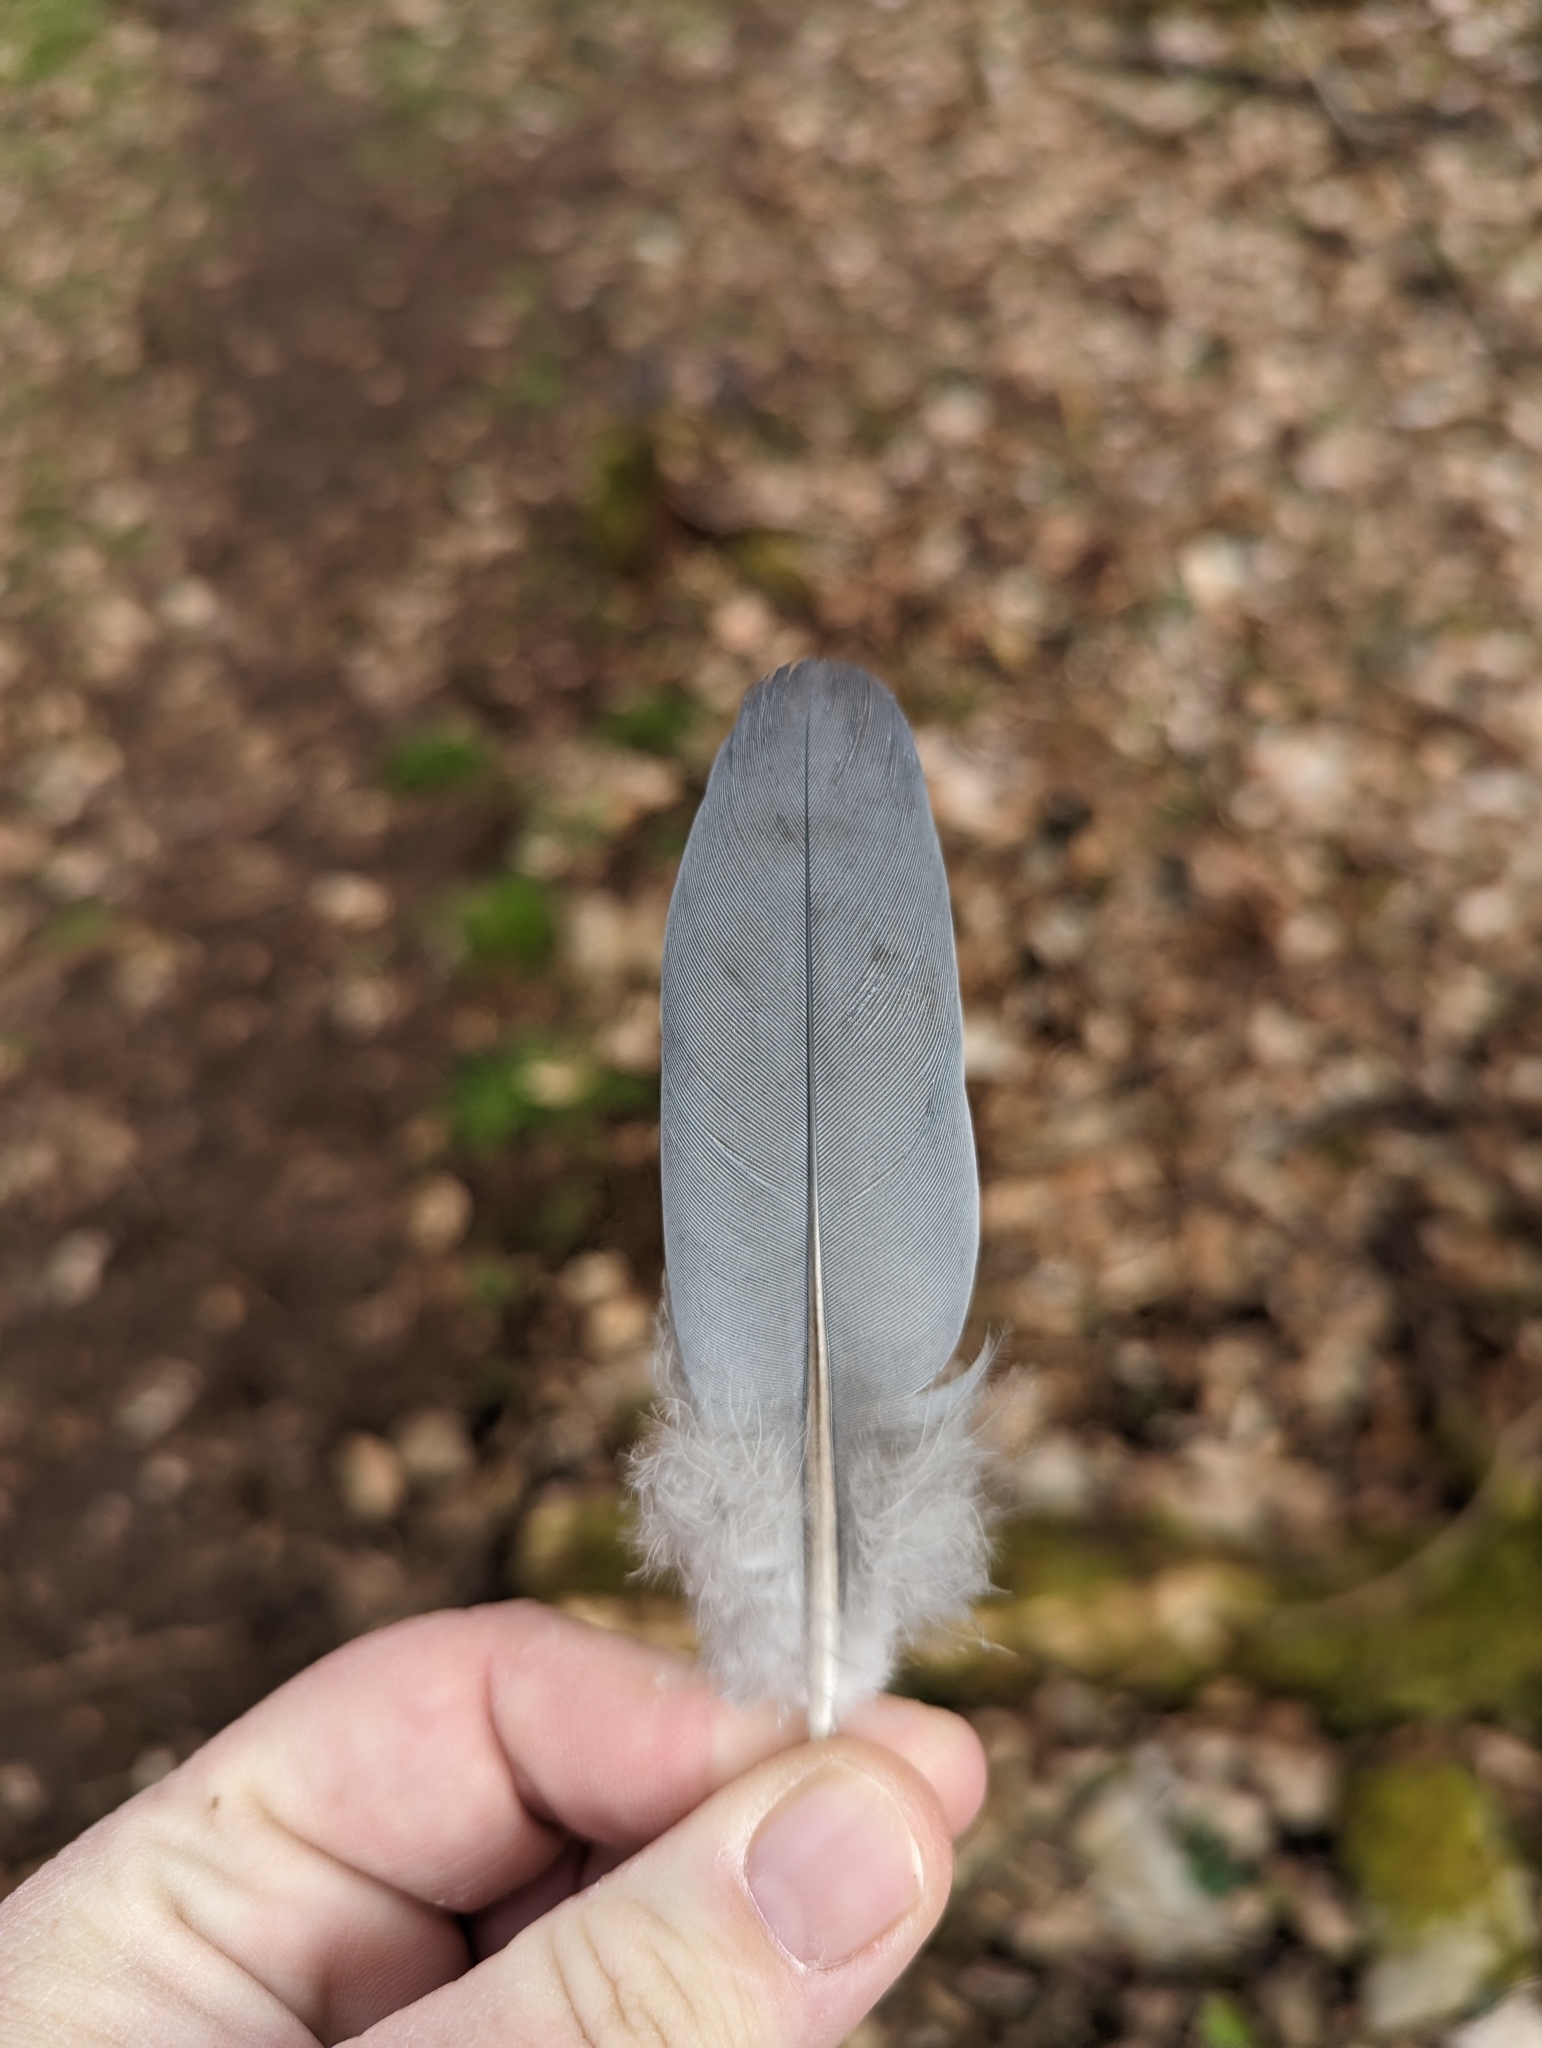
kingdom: Animalia
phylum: Chordata
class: Aves
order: Columbiformes
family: Columbidae
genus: Columba
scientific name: Columba palumbus
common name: Common wood pigeon
